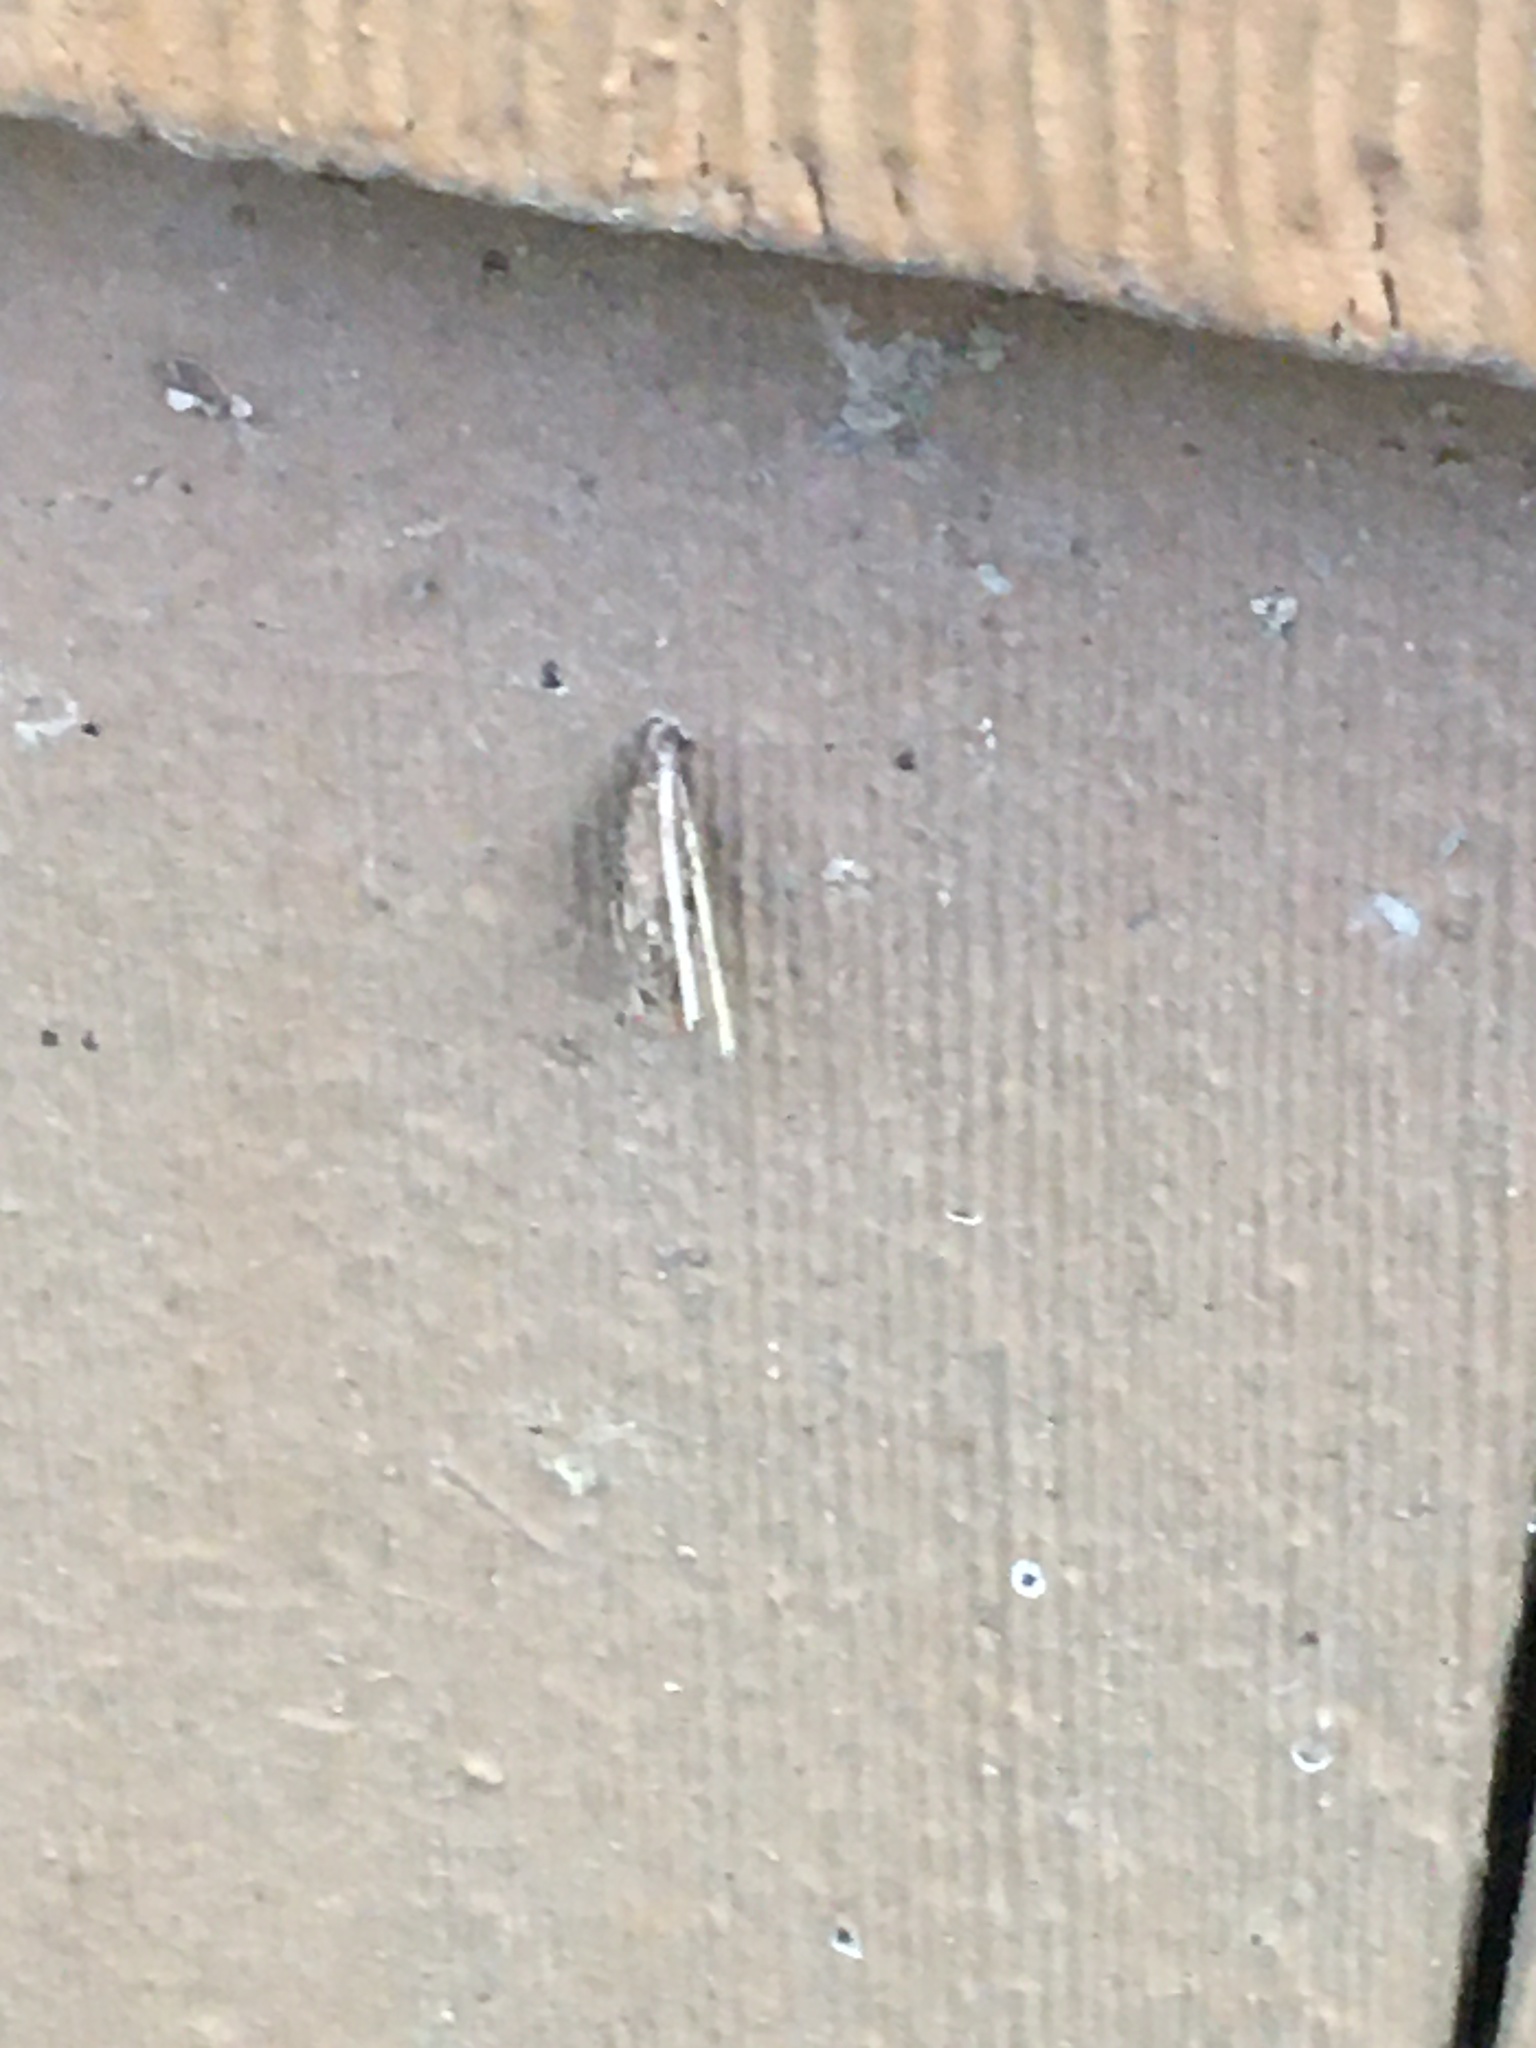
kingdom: Animalia
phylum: Arthropoda
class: Insecta
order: Lepidoptera
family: Psychidae
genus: Psyche
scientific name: Psyche casta
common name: Common sweep
